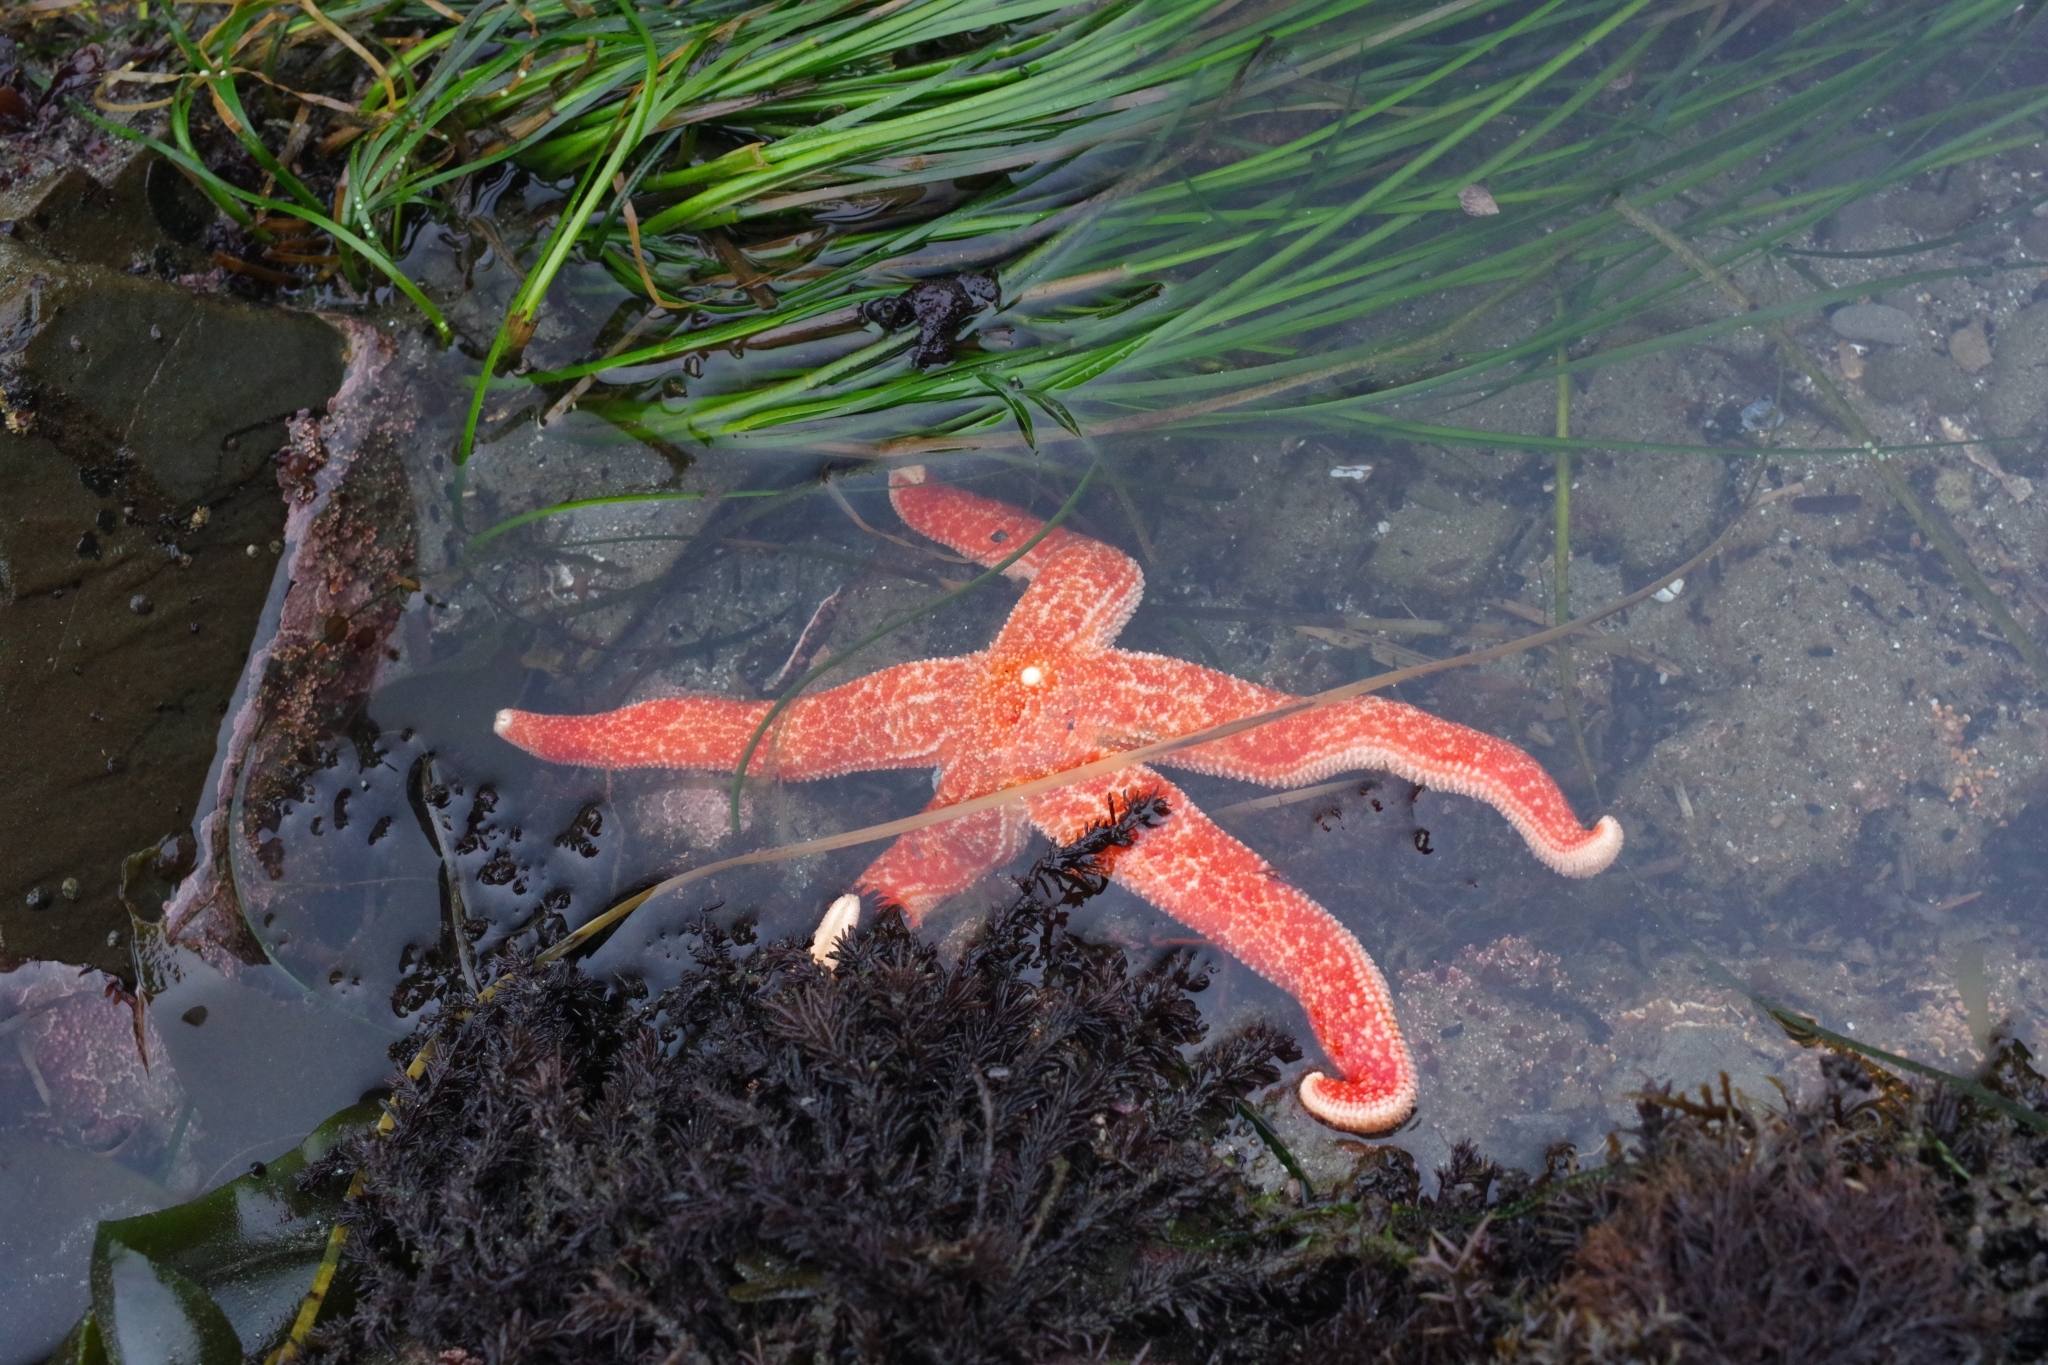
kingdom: Animalia
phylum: Echinodermata
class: Asteroidea
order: Forcipulatida
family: Asteriidae
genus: Evasterias
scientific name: Evasterias troschelii
